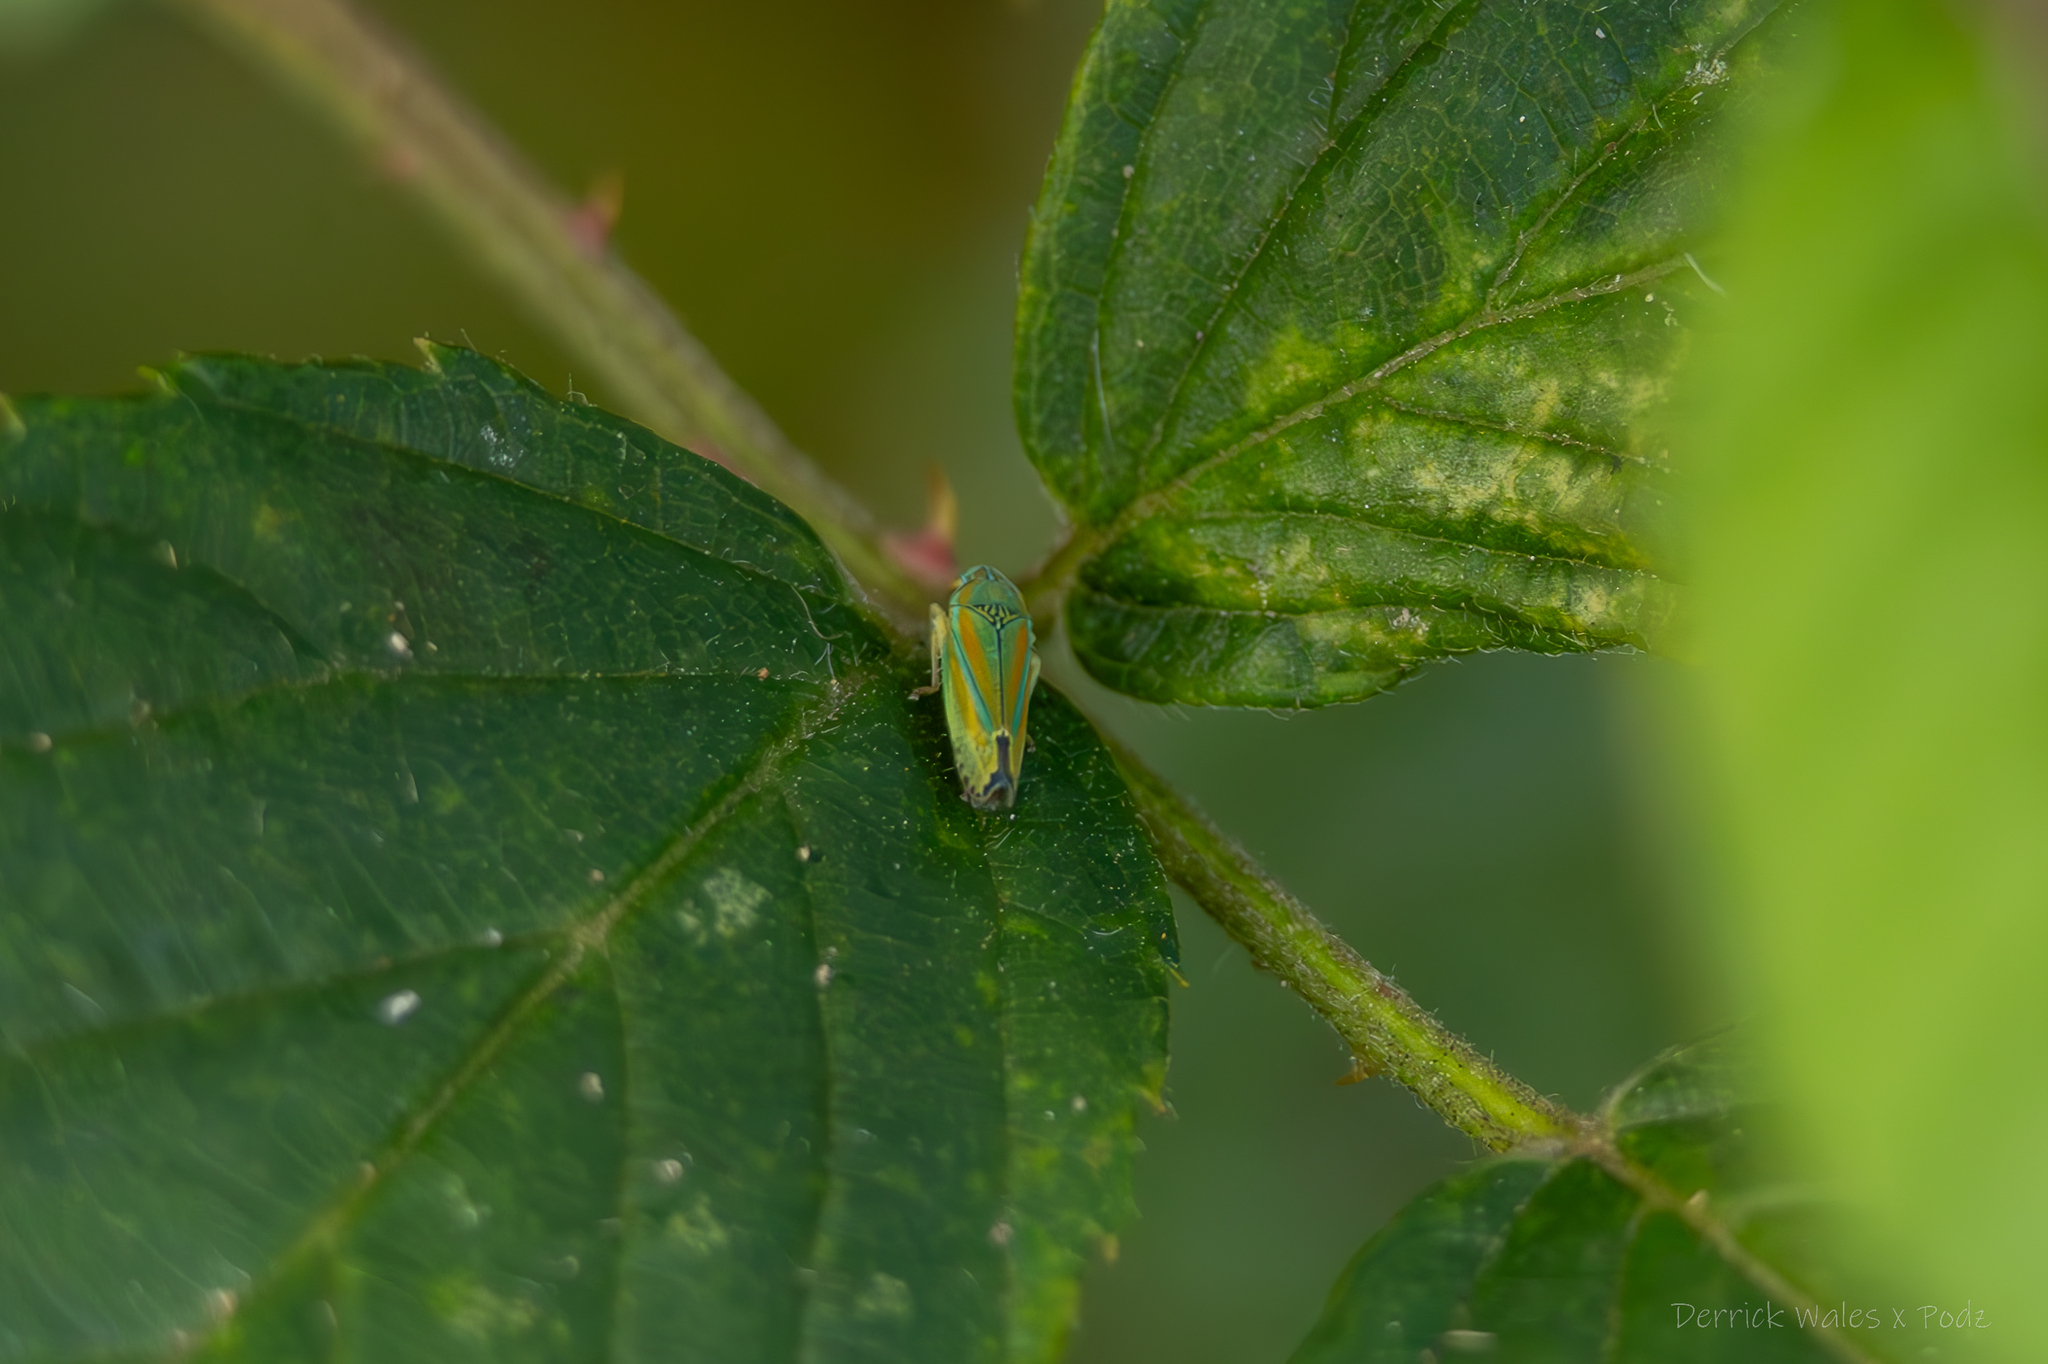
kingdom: Animalia
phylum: Arthropoda
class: Insecta
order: Hemiptera
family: Cicadellidae
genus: Graphocephala
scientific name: Graphocephala versuta
